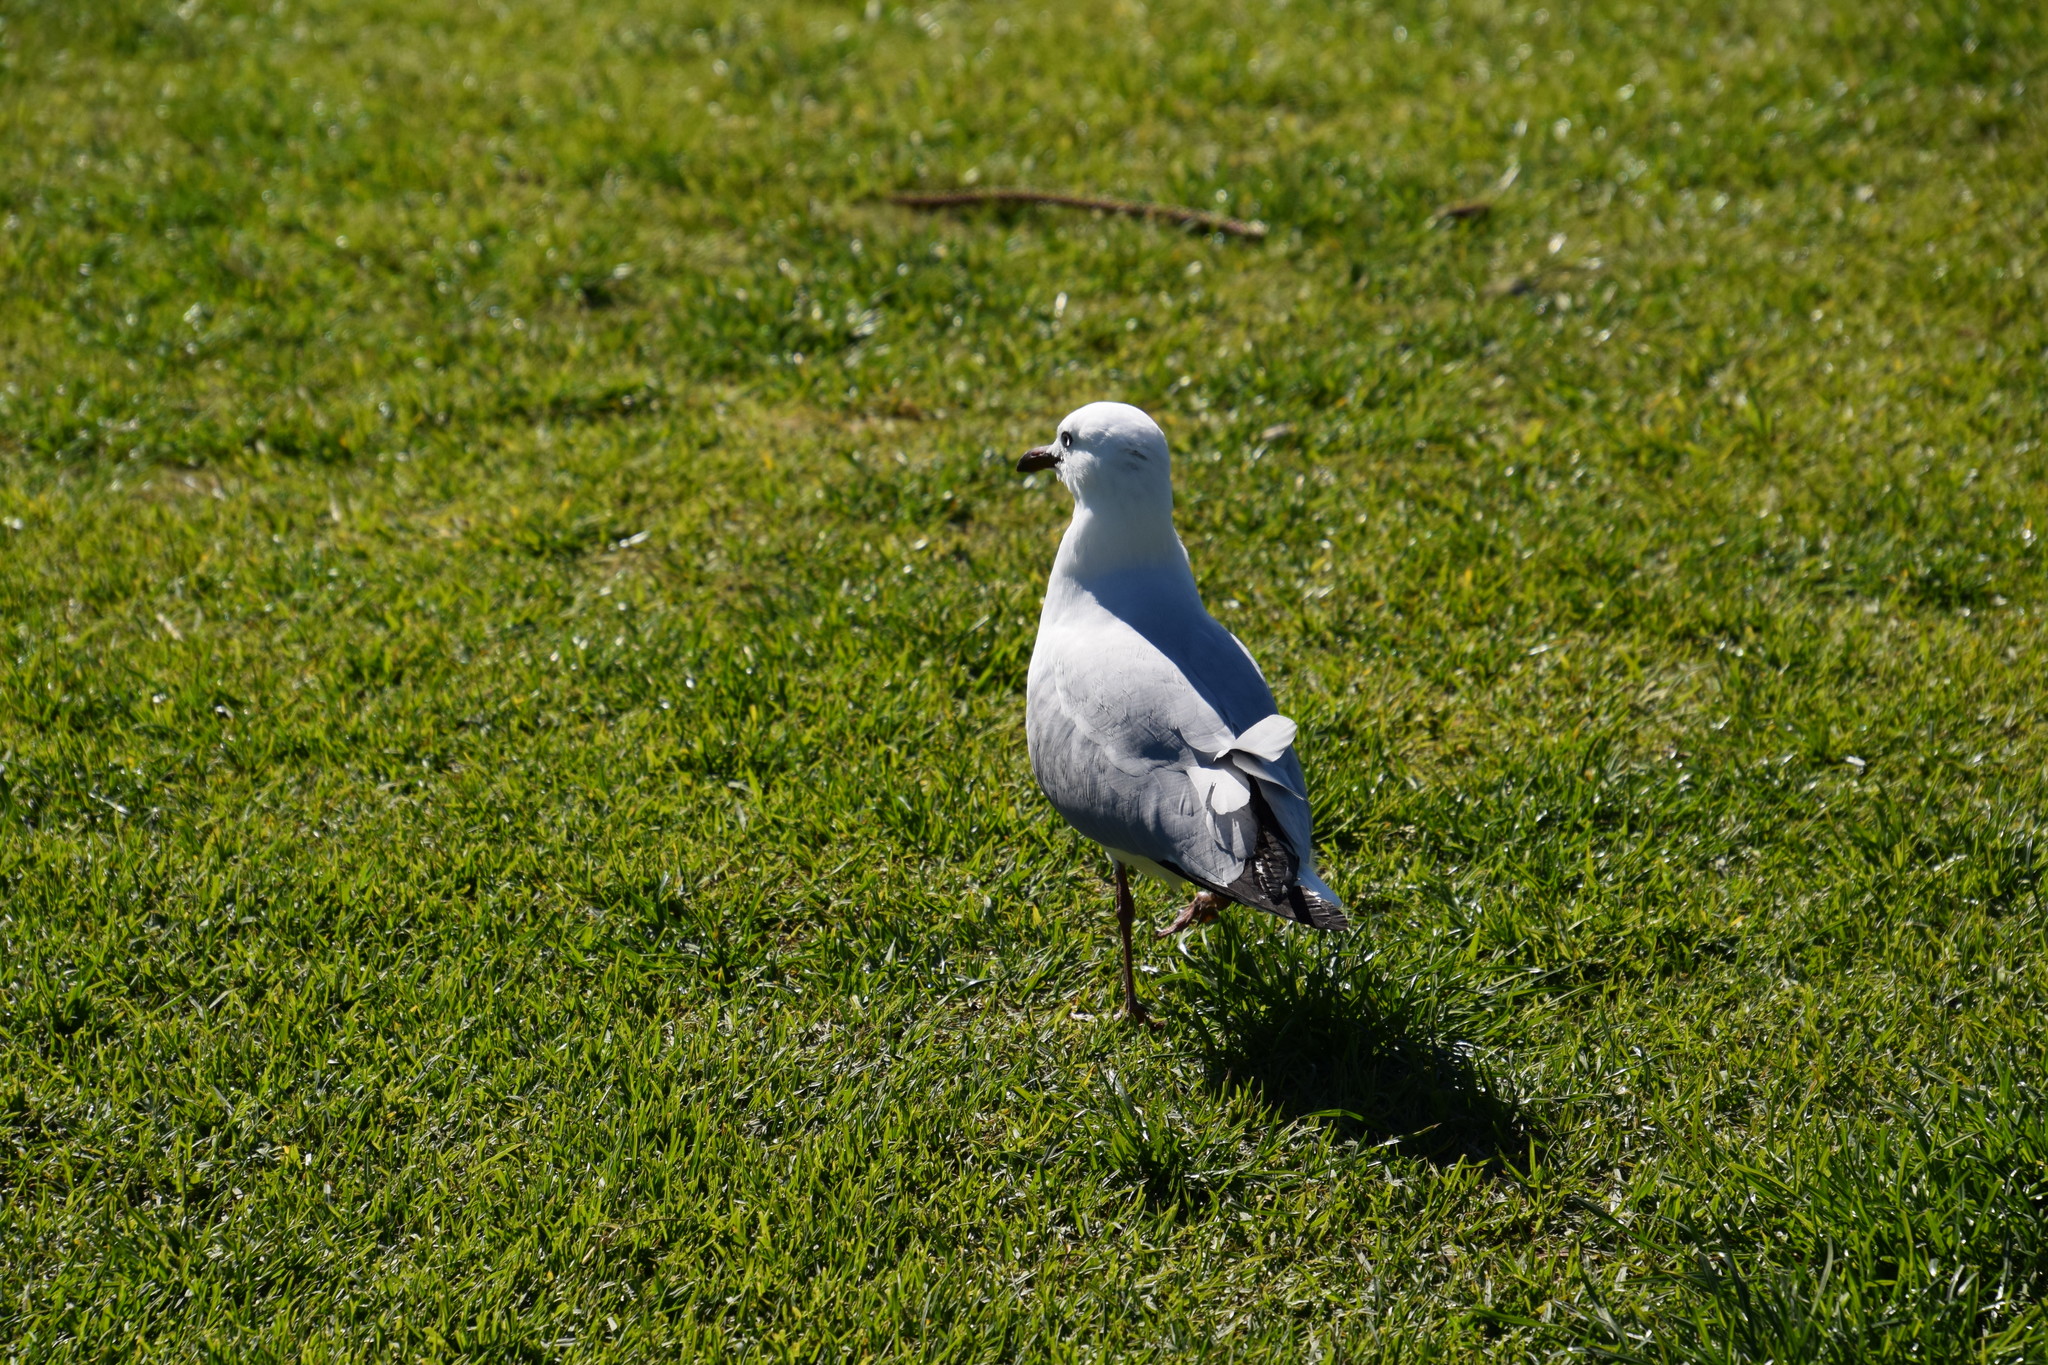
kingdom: Animalia
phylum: Chordata
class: Aves
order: Charadriiformes
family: Laridae
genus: Chroicocephalus
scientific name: Chroicocephalus novaehollandiae
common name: Silver gull
